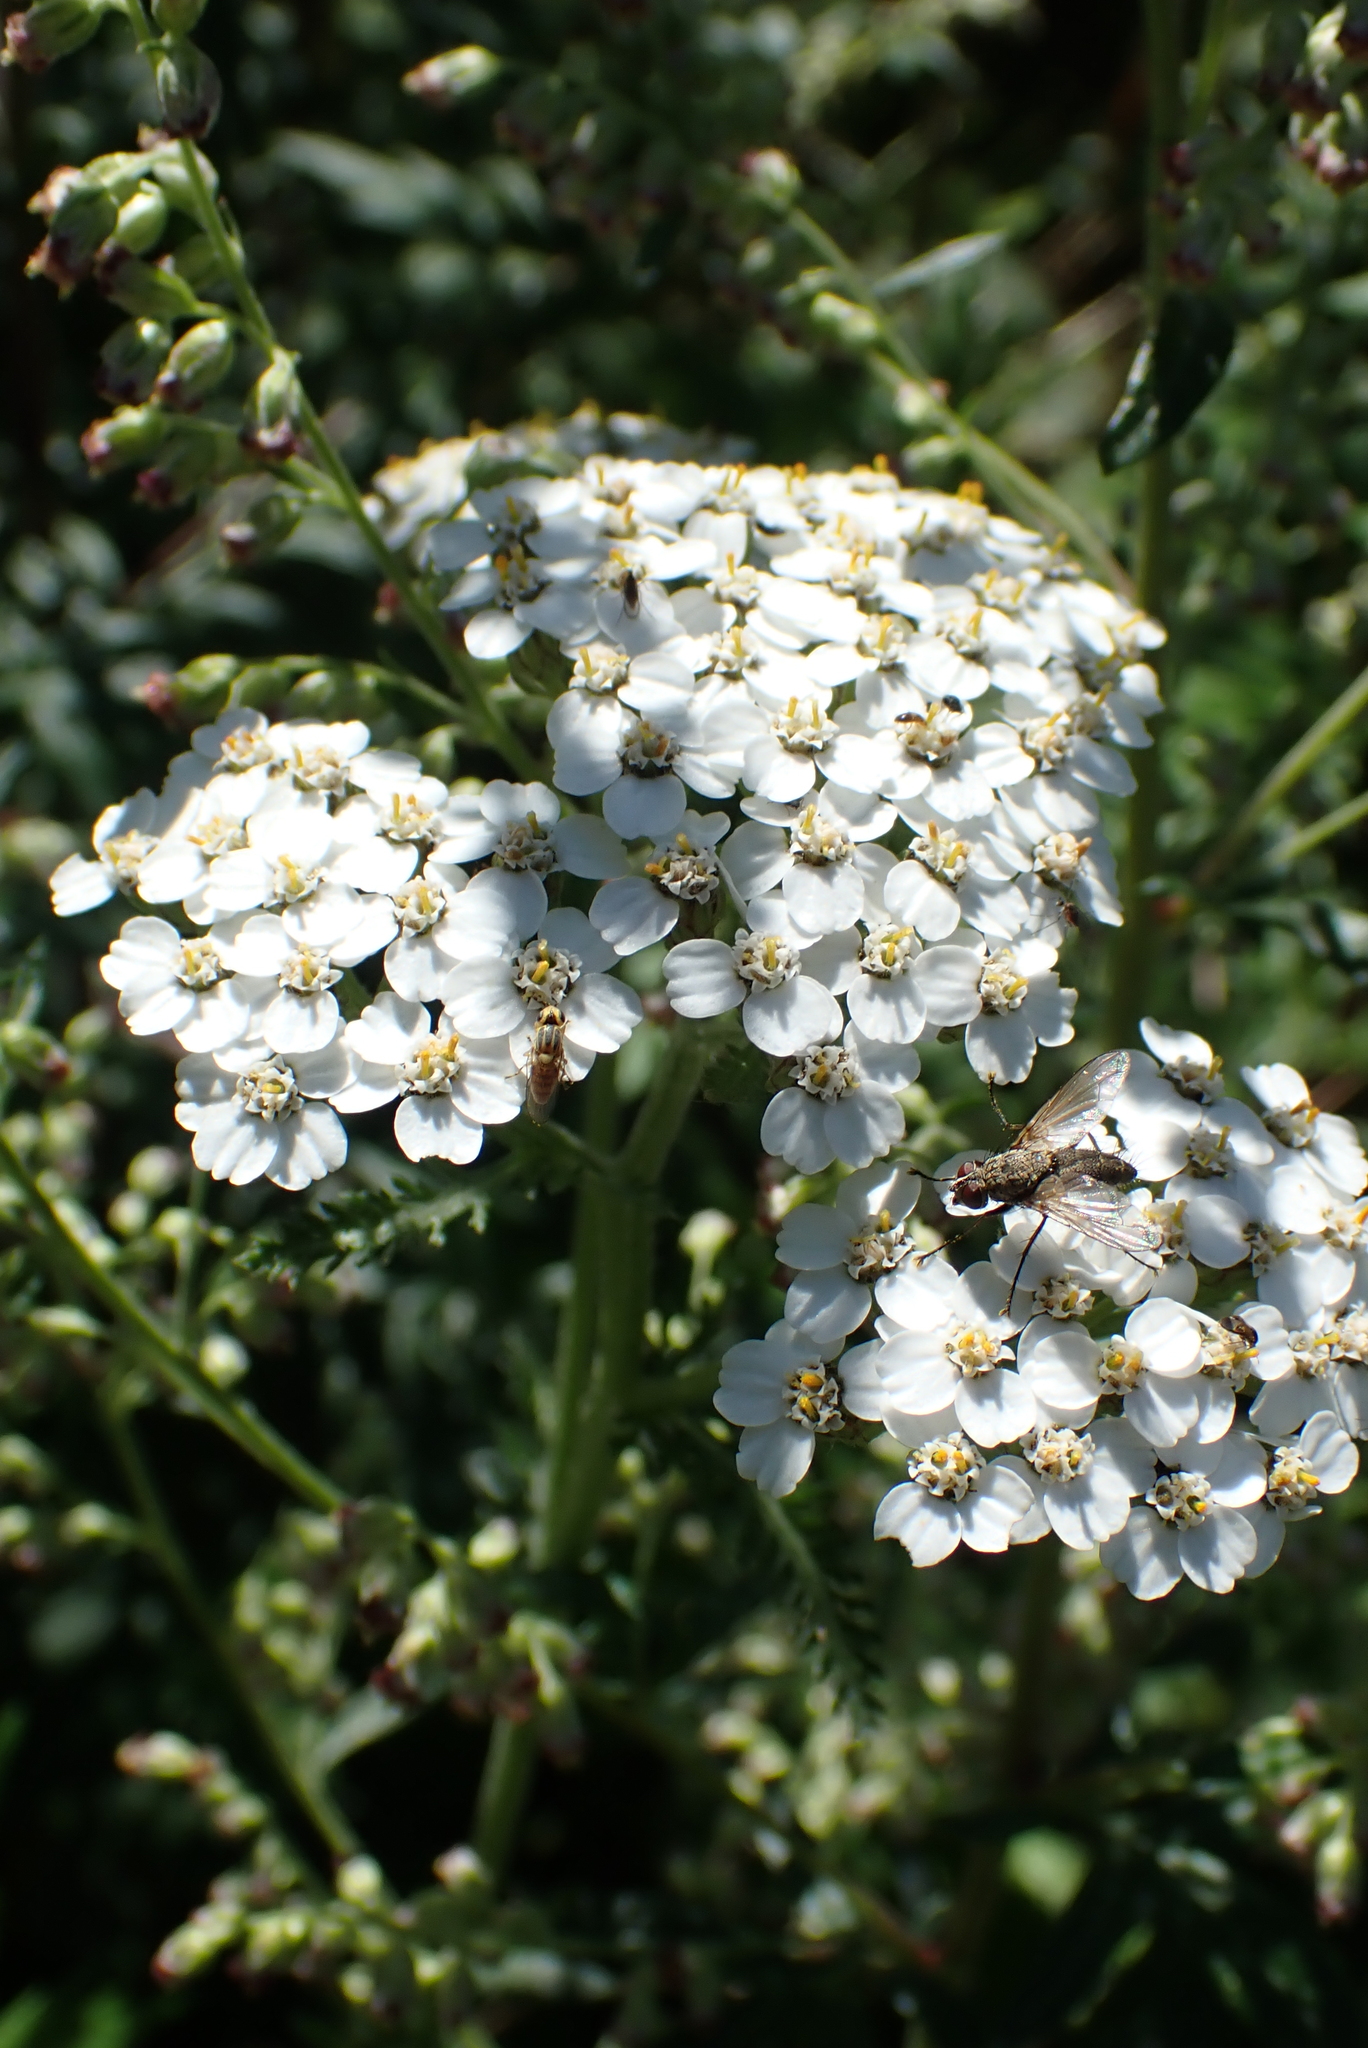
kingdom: Plantae
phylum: Tracheophyta
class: Magnoliopsida
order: Asterales
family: Asteraceae
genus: Achillea
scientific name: Achillea millefolium
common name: Yarrow
